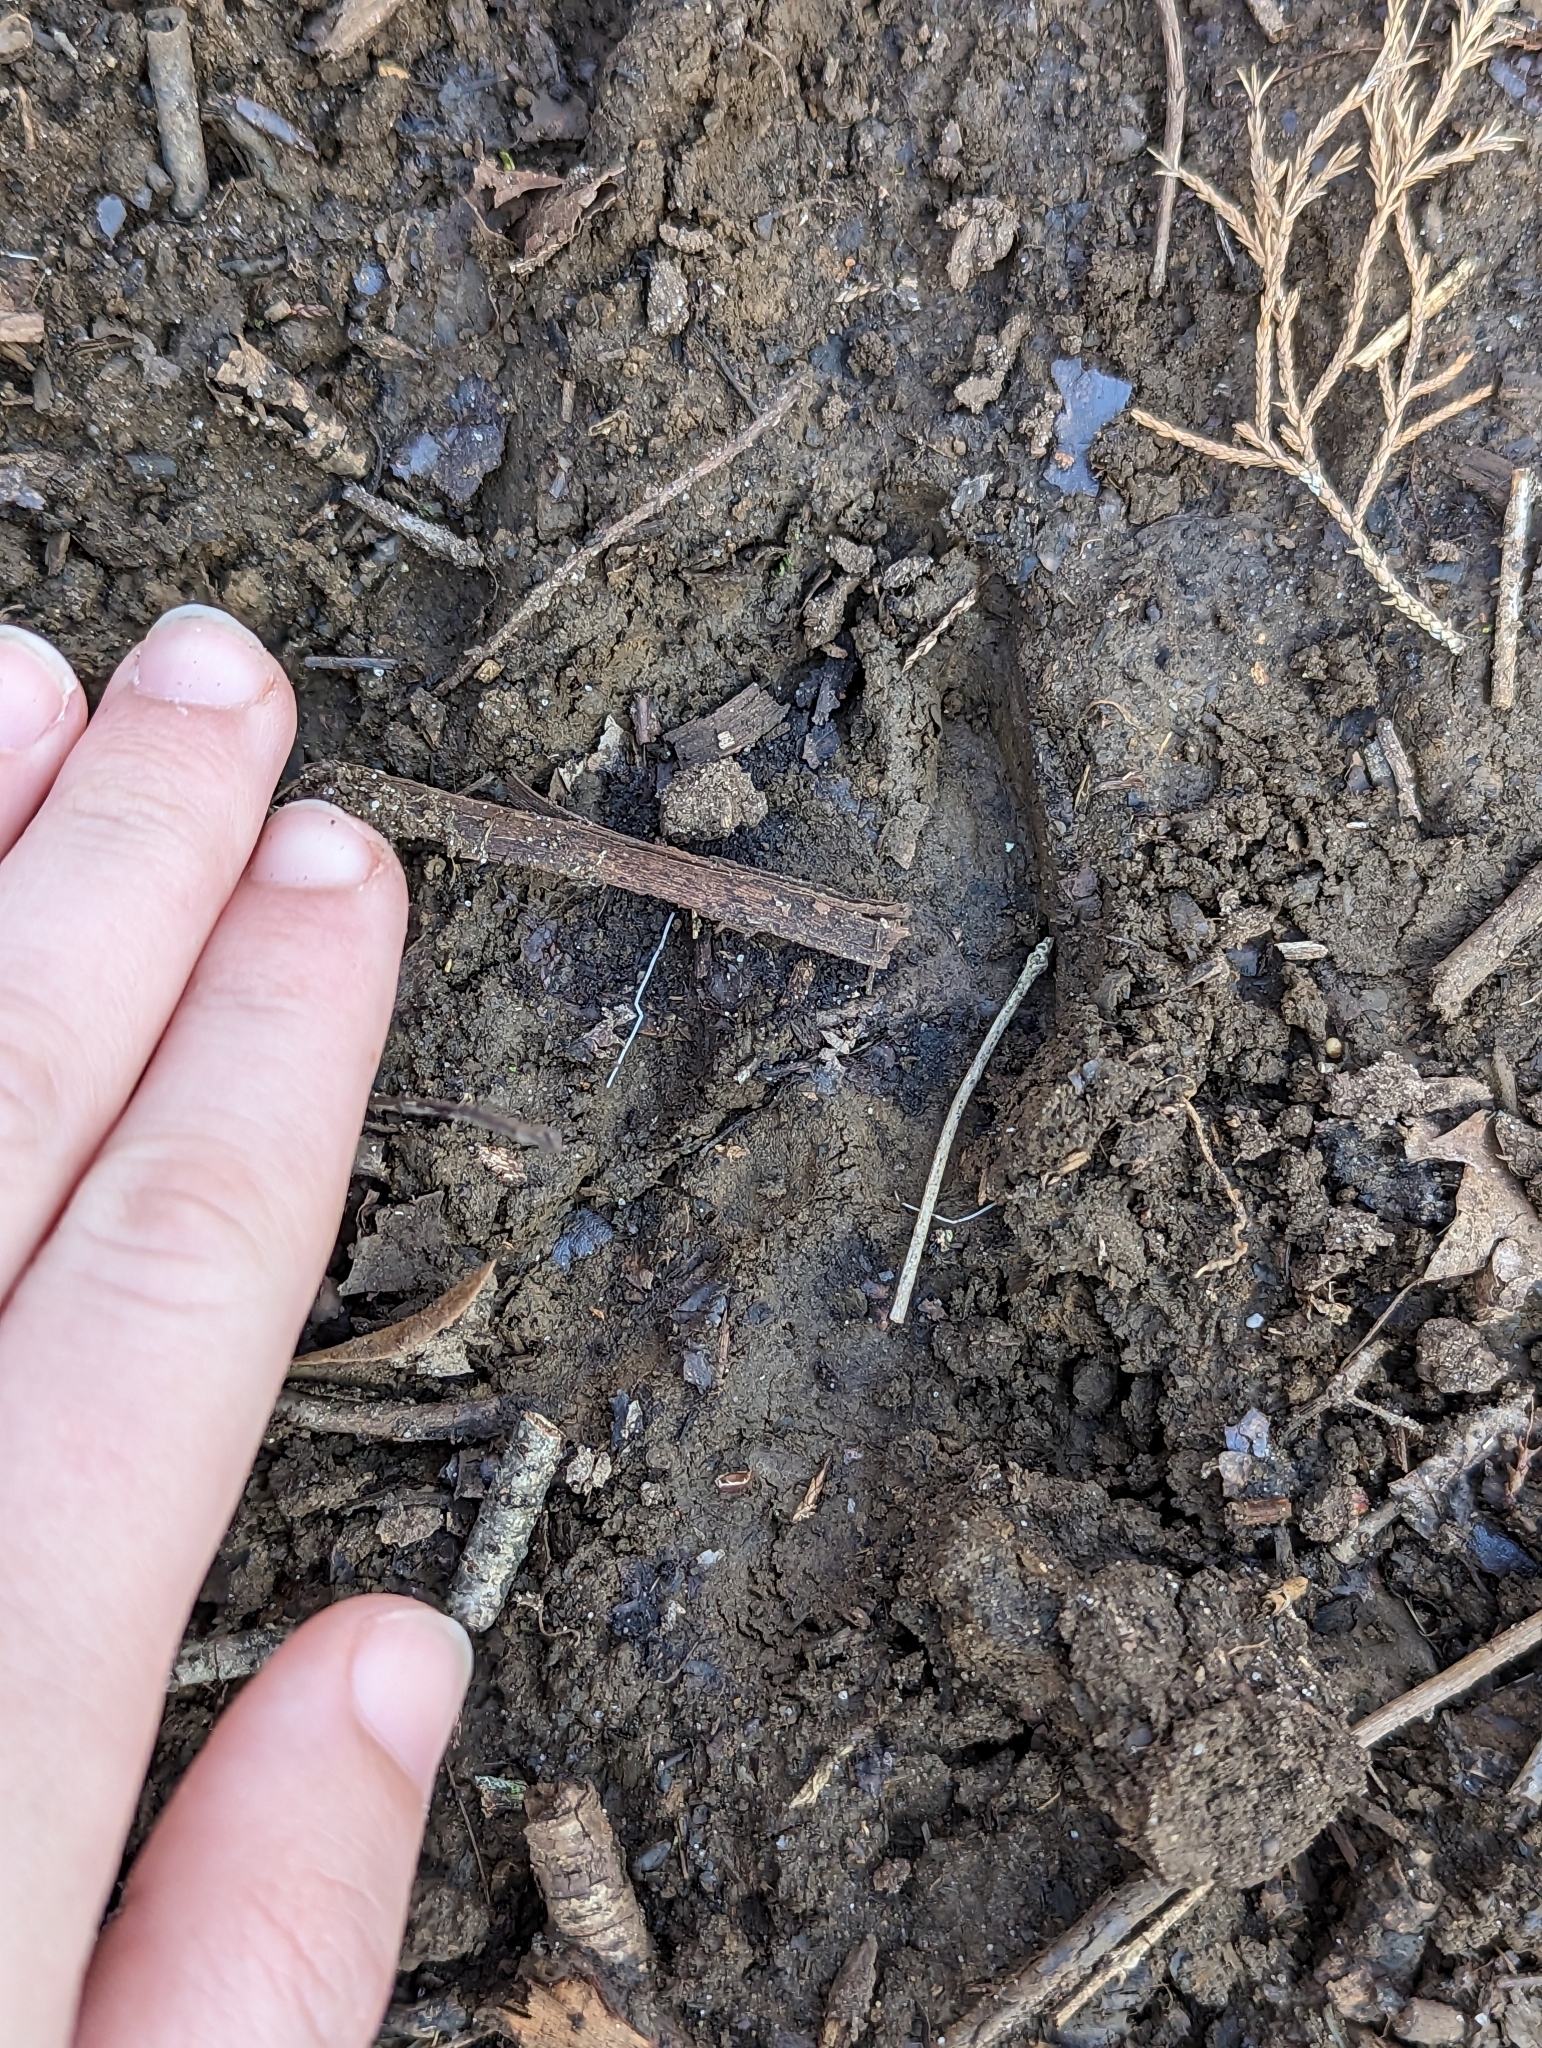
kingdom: Animalia
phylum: Chordata
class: Mammalia
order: Artiodactyla
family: Cervidae
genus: Odocoileus
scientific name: Odocoileus virginianus
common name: White-tailed deer
